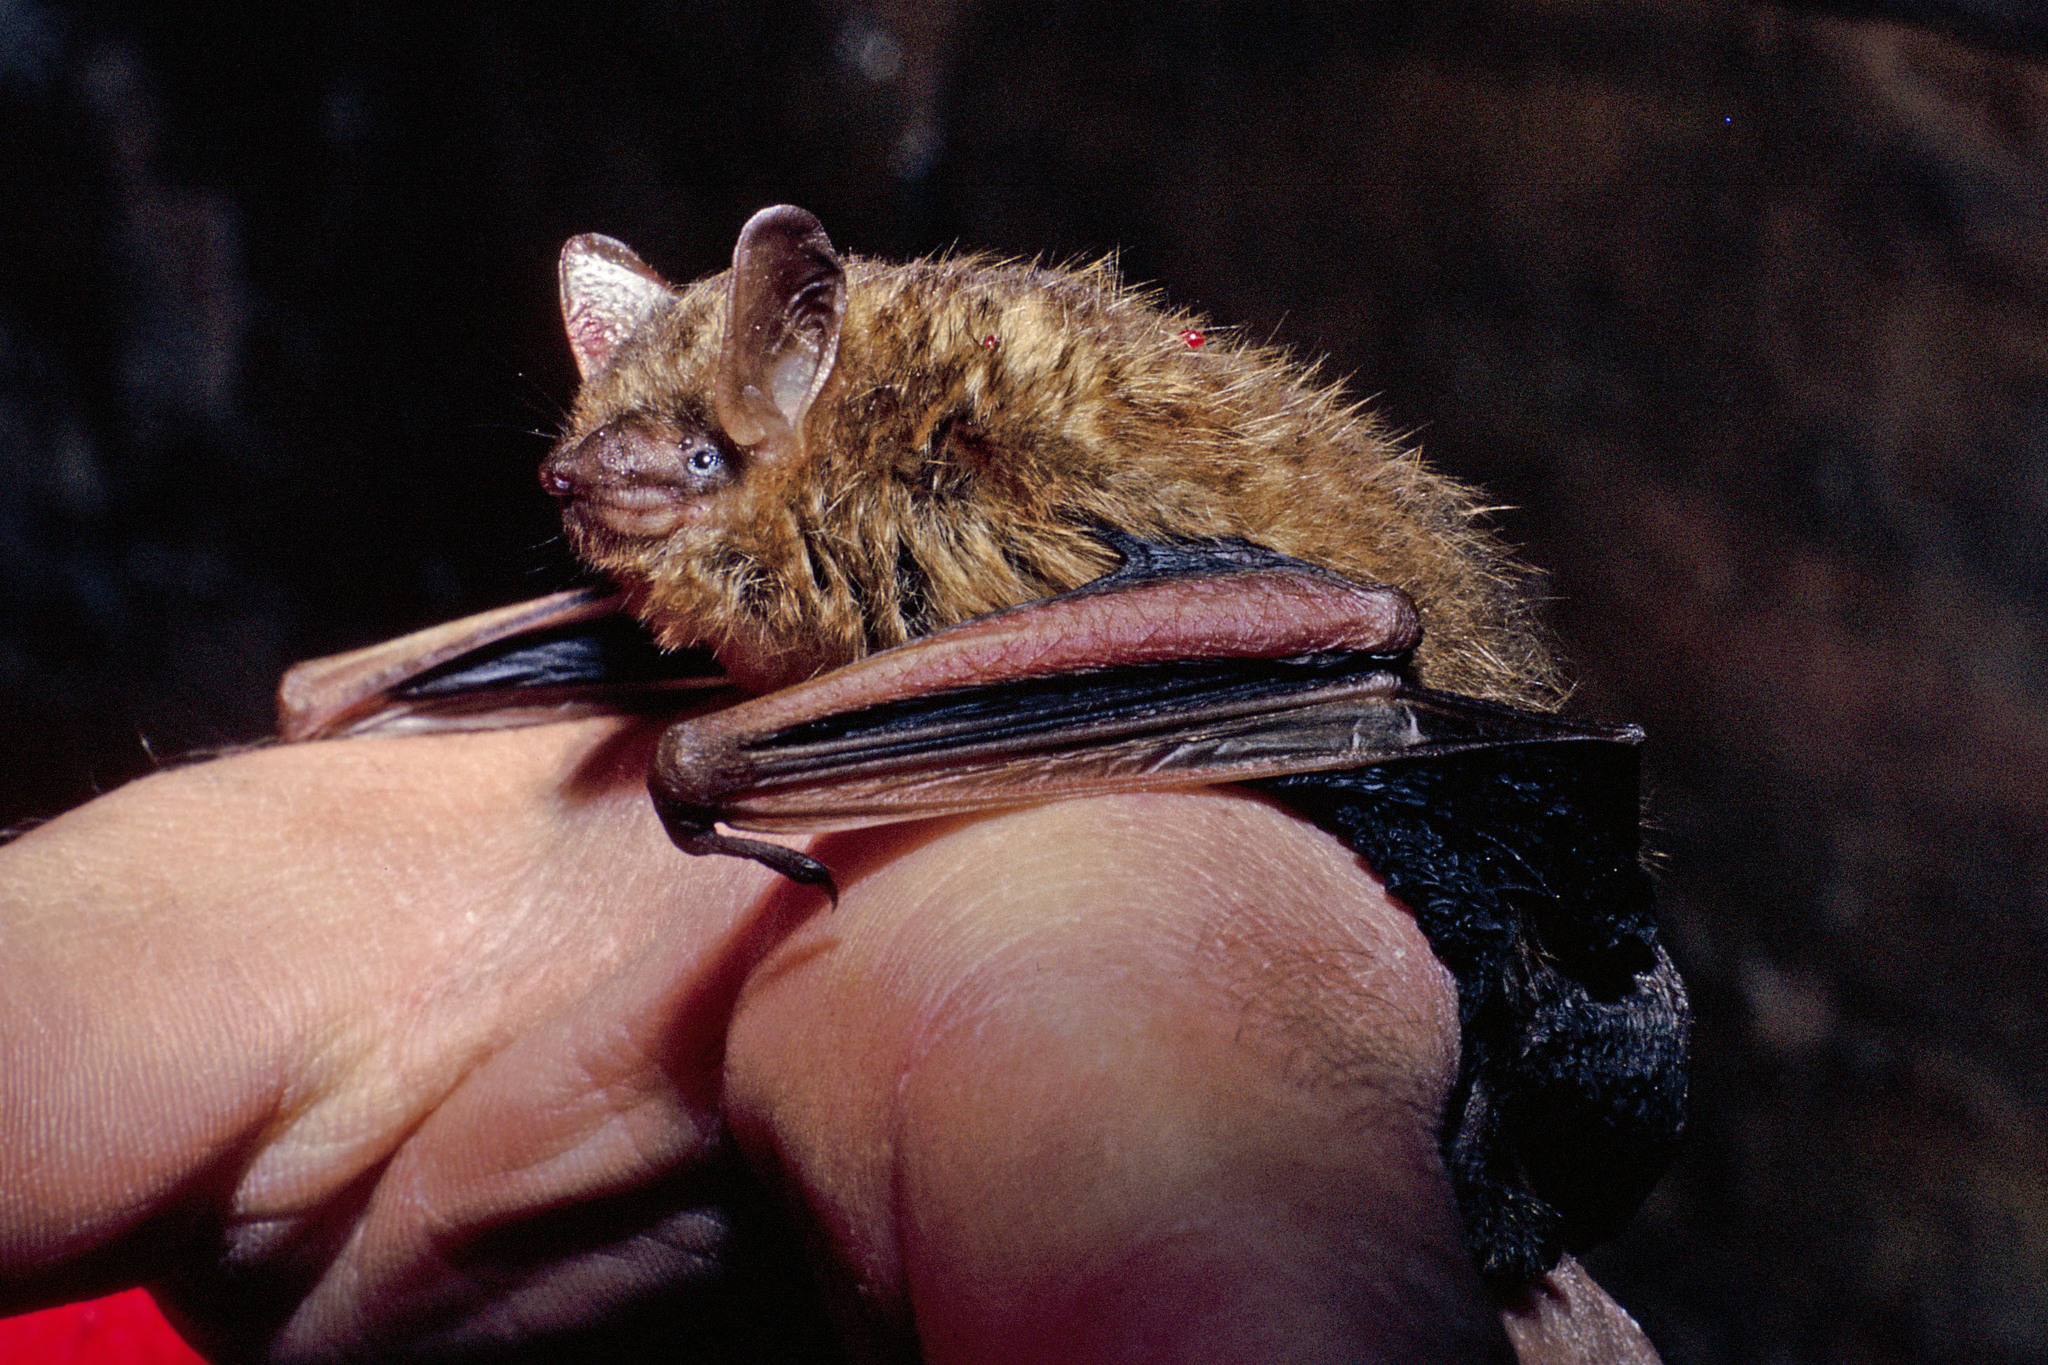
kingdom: Animalia
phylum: Chordata
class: Mammalia
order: Chiroptera
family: Vespertilionidae
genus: Perimyotis
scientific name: Perimyotis subflavus
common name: Eastern pipistrelle
